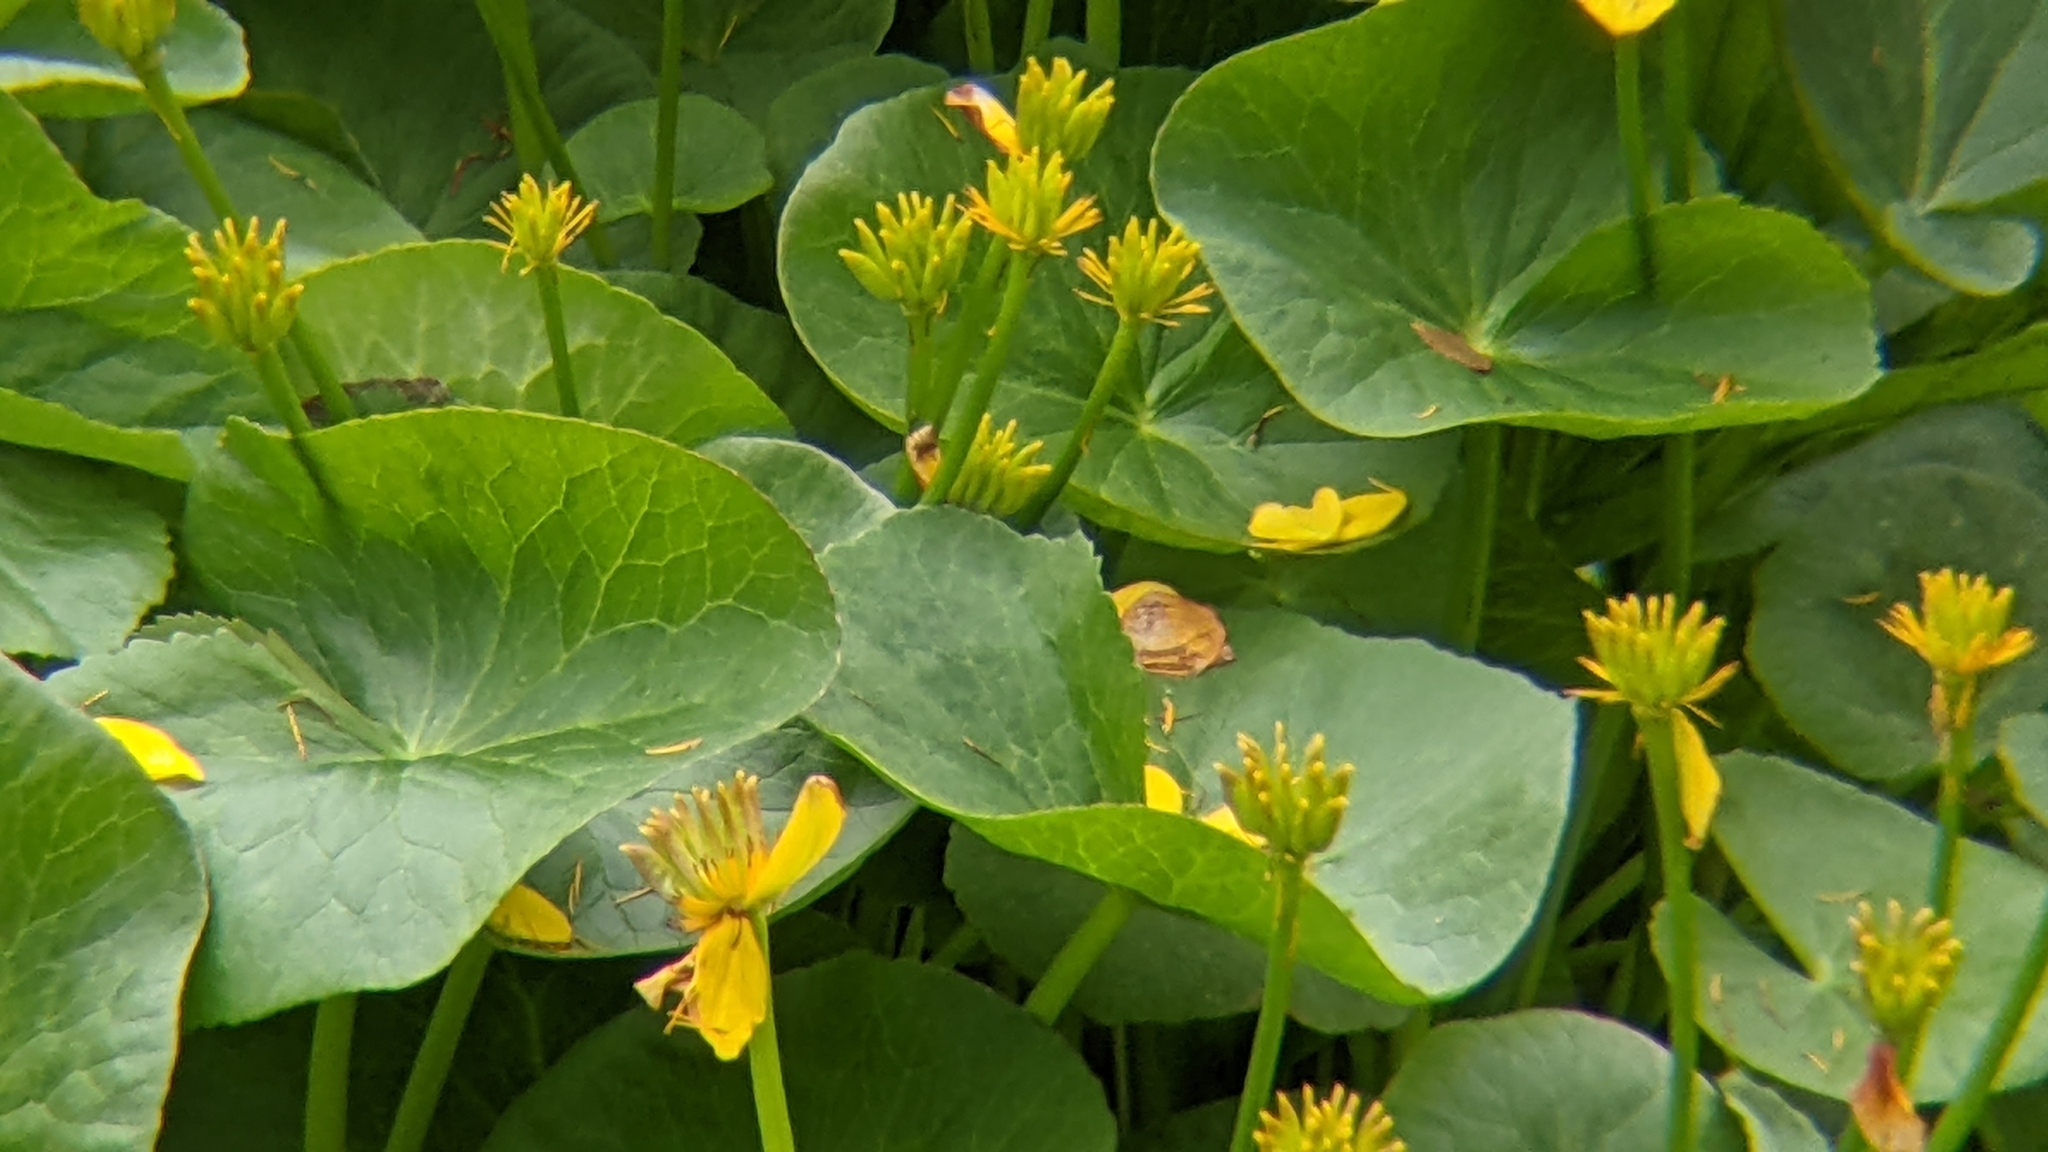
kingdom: Plantae
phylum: Tracheophyta
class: Magnoliopsida
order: Ranunculales
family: Ranunculaceae
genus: Caltha
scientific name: Caltha palustris
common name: Marsh marigold
